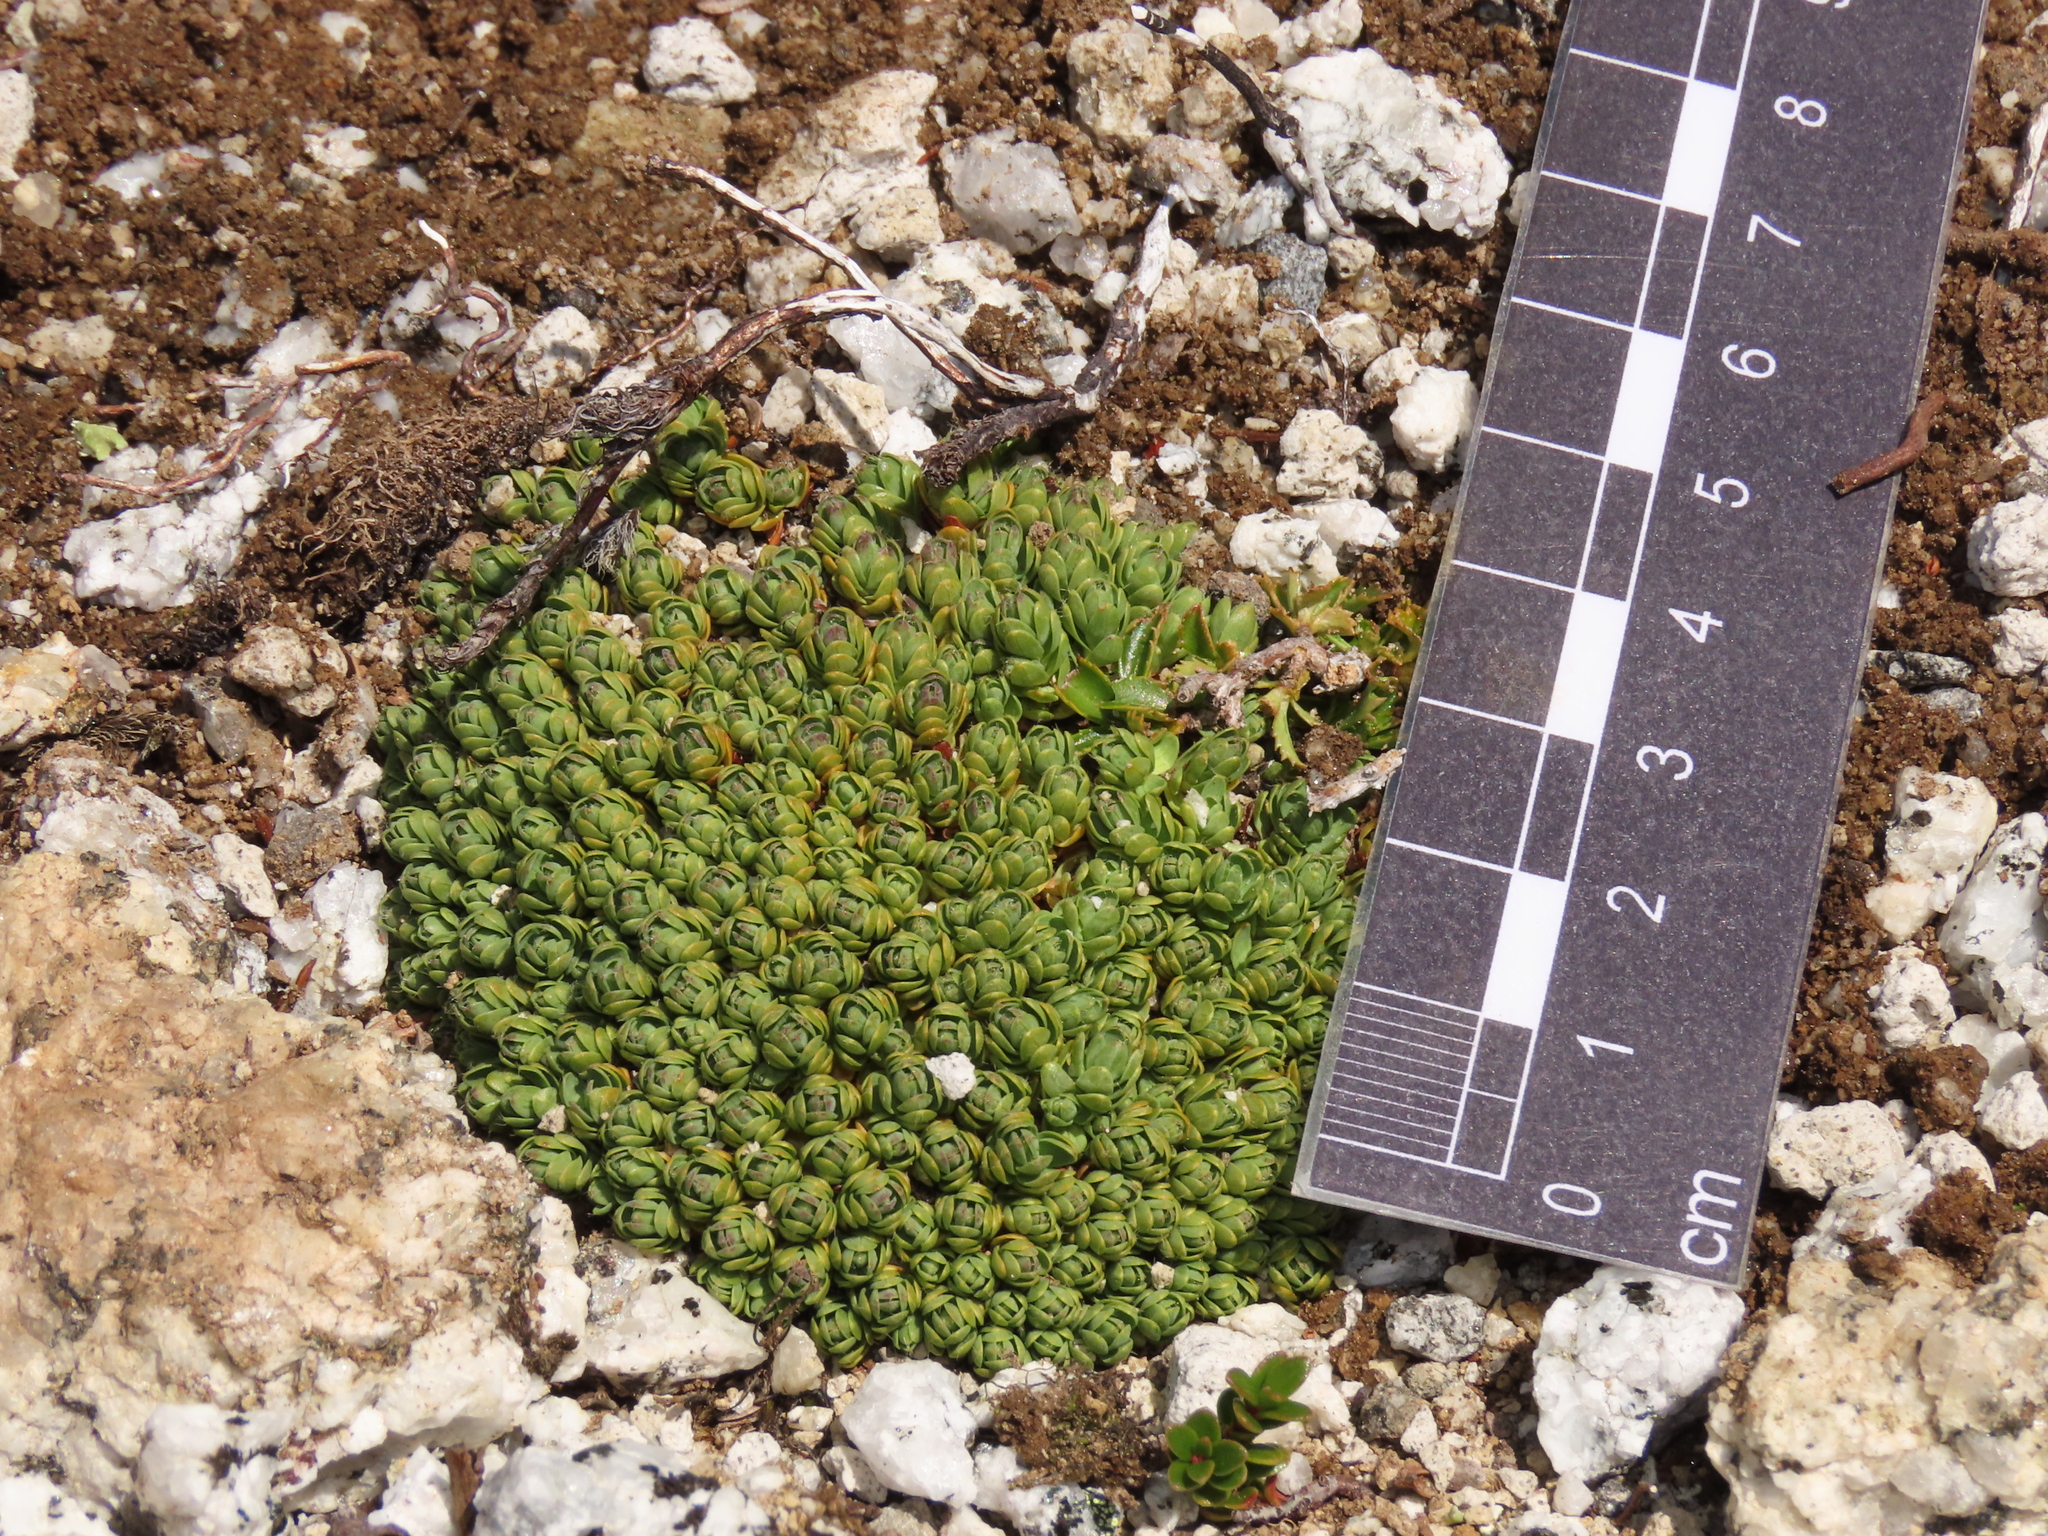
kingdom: Plantae
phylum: Tracheophyta
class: Magnoliopsida
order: Malvales
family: Thymelaeaceae
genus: Drapetes
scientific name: Drapetes muscosus
